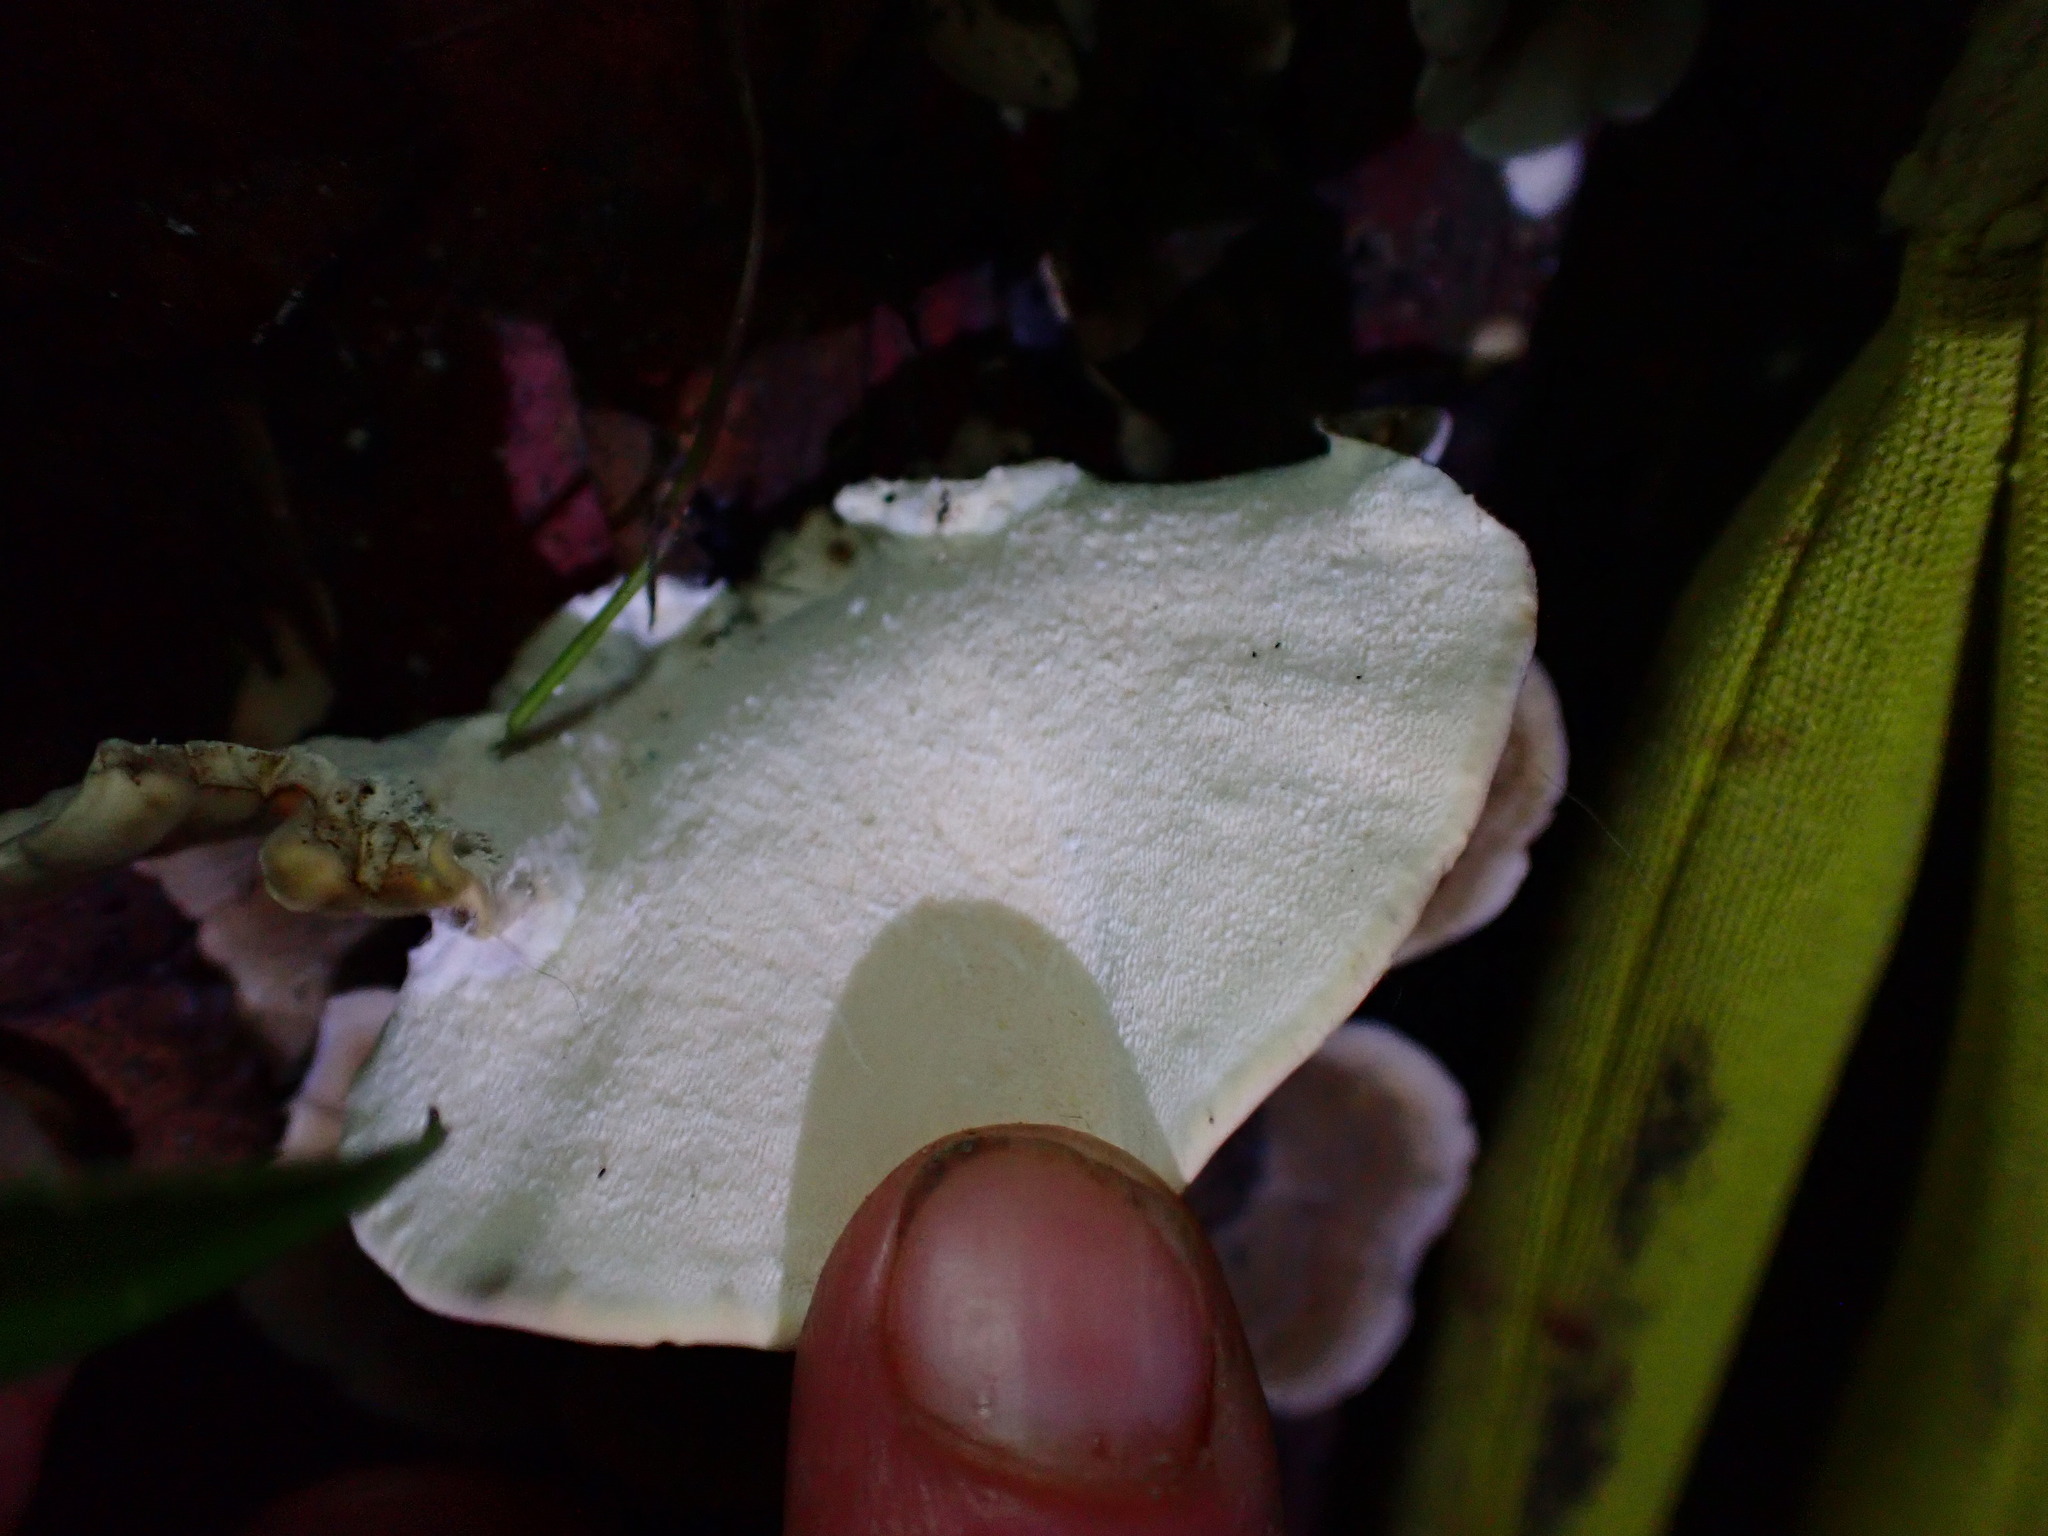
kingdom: Fungi
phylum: Basidiomycota
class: Agaricomycetes
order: Polyporales
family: Polyporaceae
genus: Trametes
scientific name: Trametes versicolor
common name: Turkeytail
